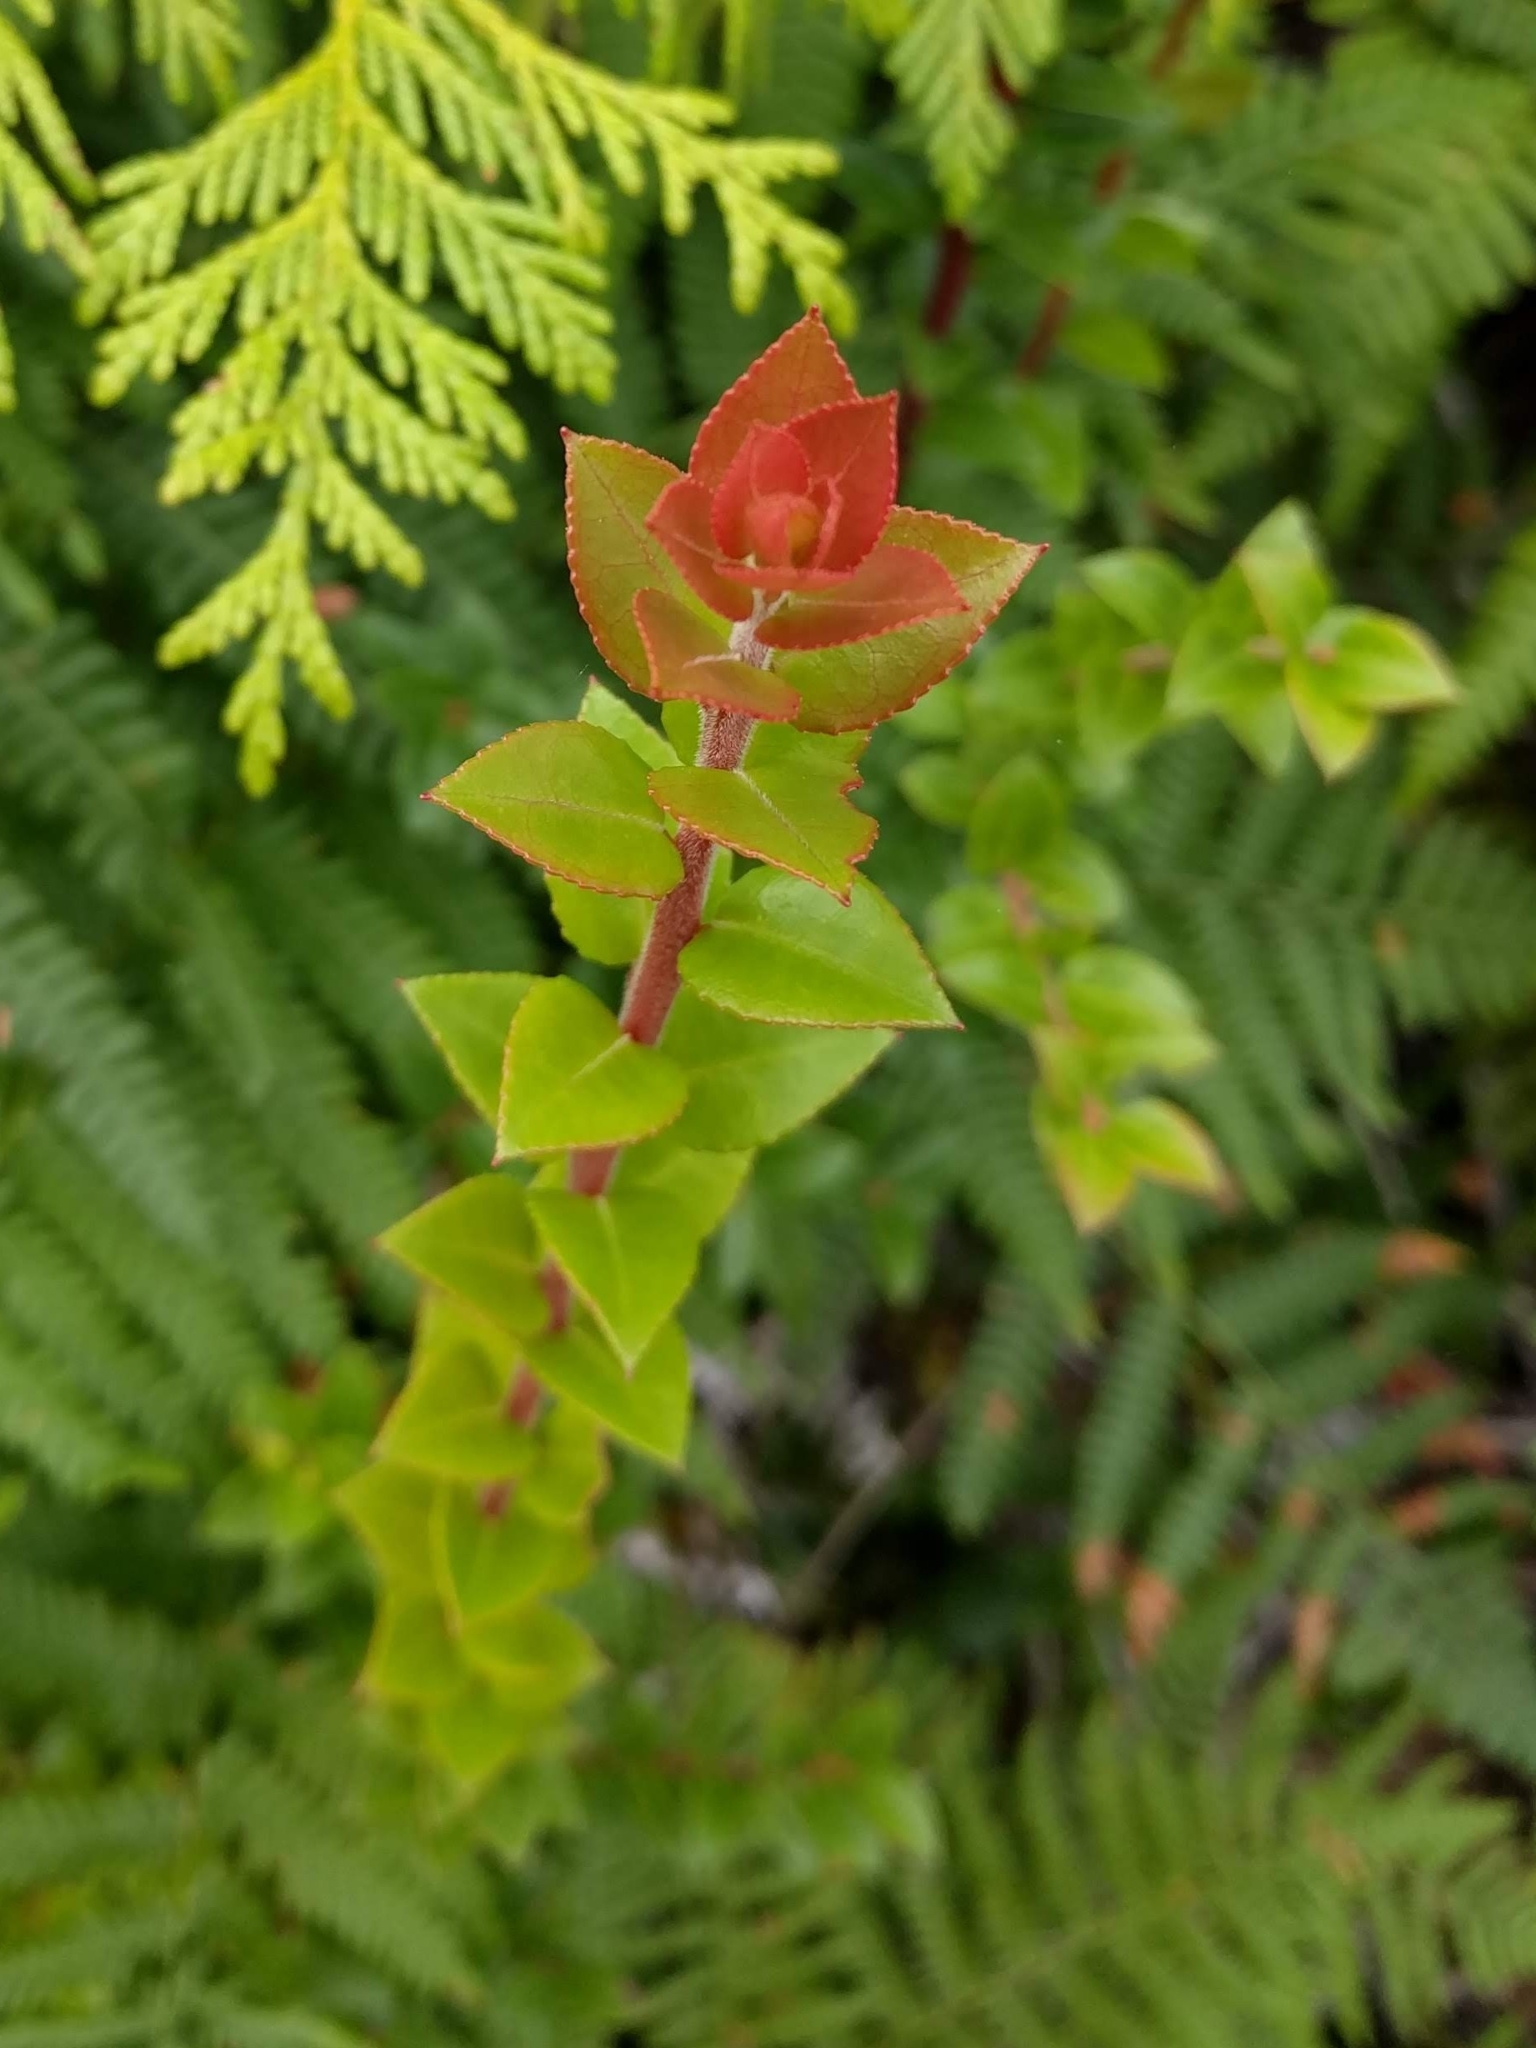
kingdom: Plantae
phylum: Tracheophyta
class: Magnoliopsida
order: Ericales
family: Ericaceae
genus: Vaccinium
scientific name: Vaccinium ovatum
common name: California-huckleberry
